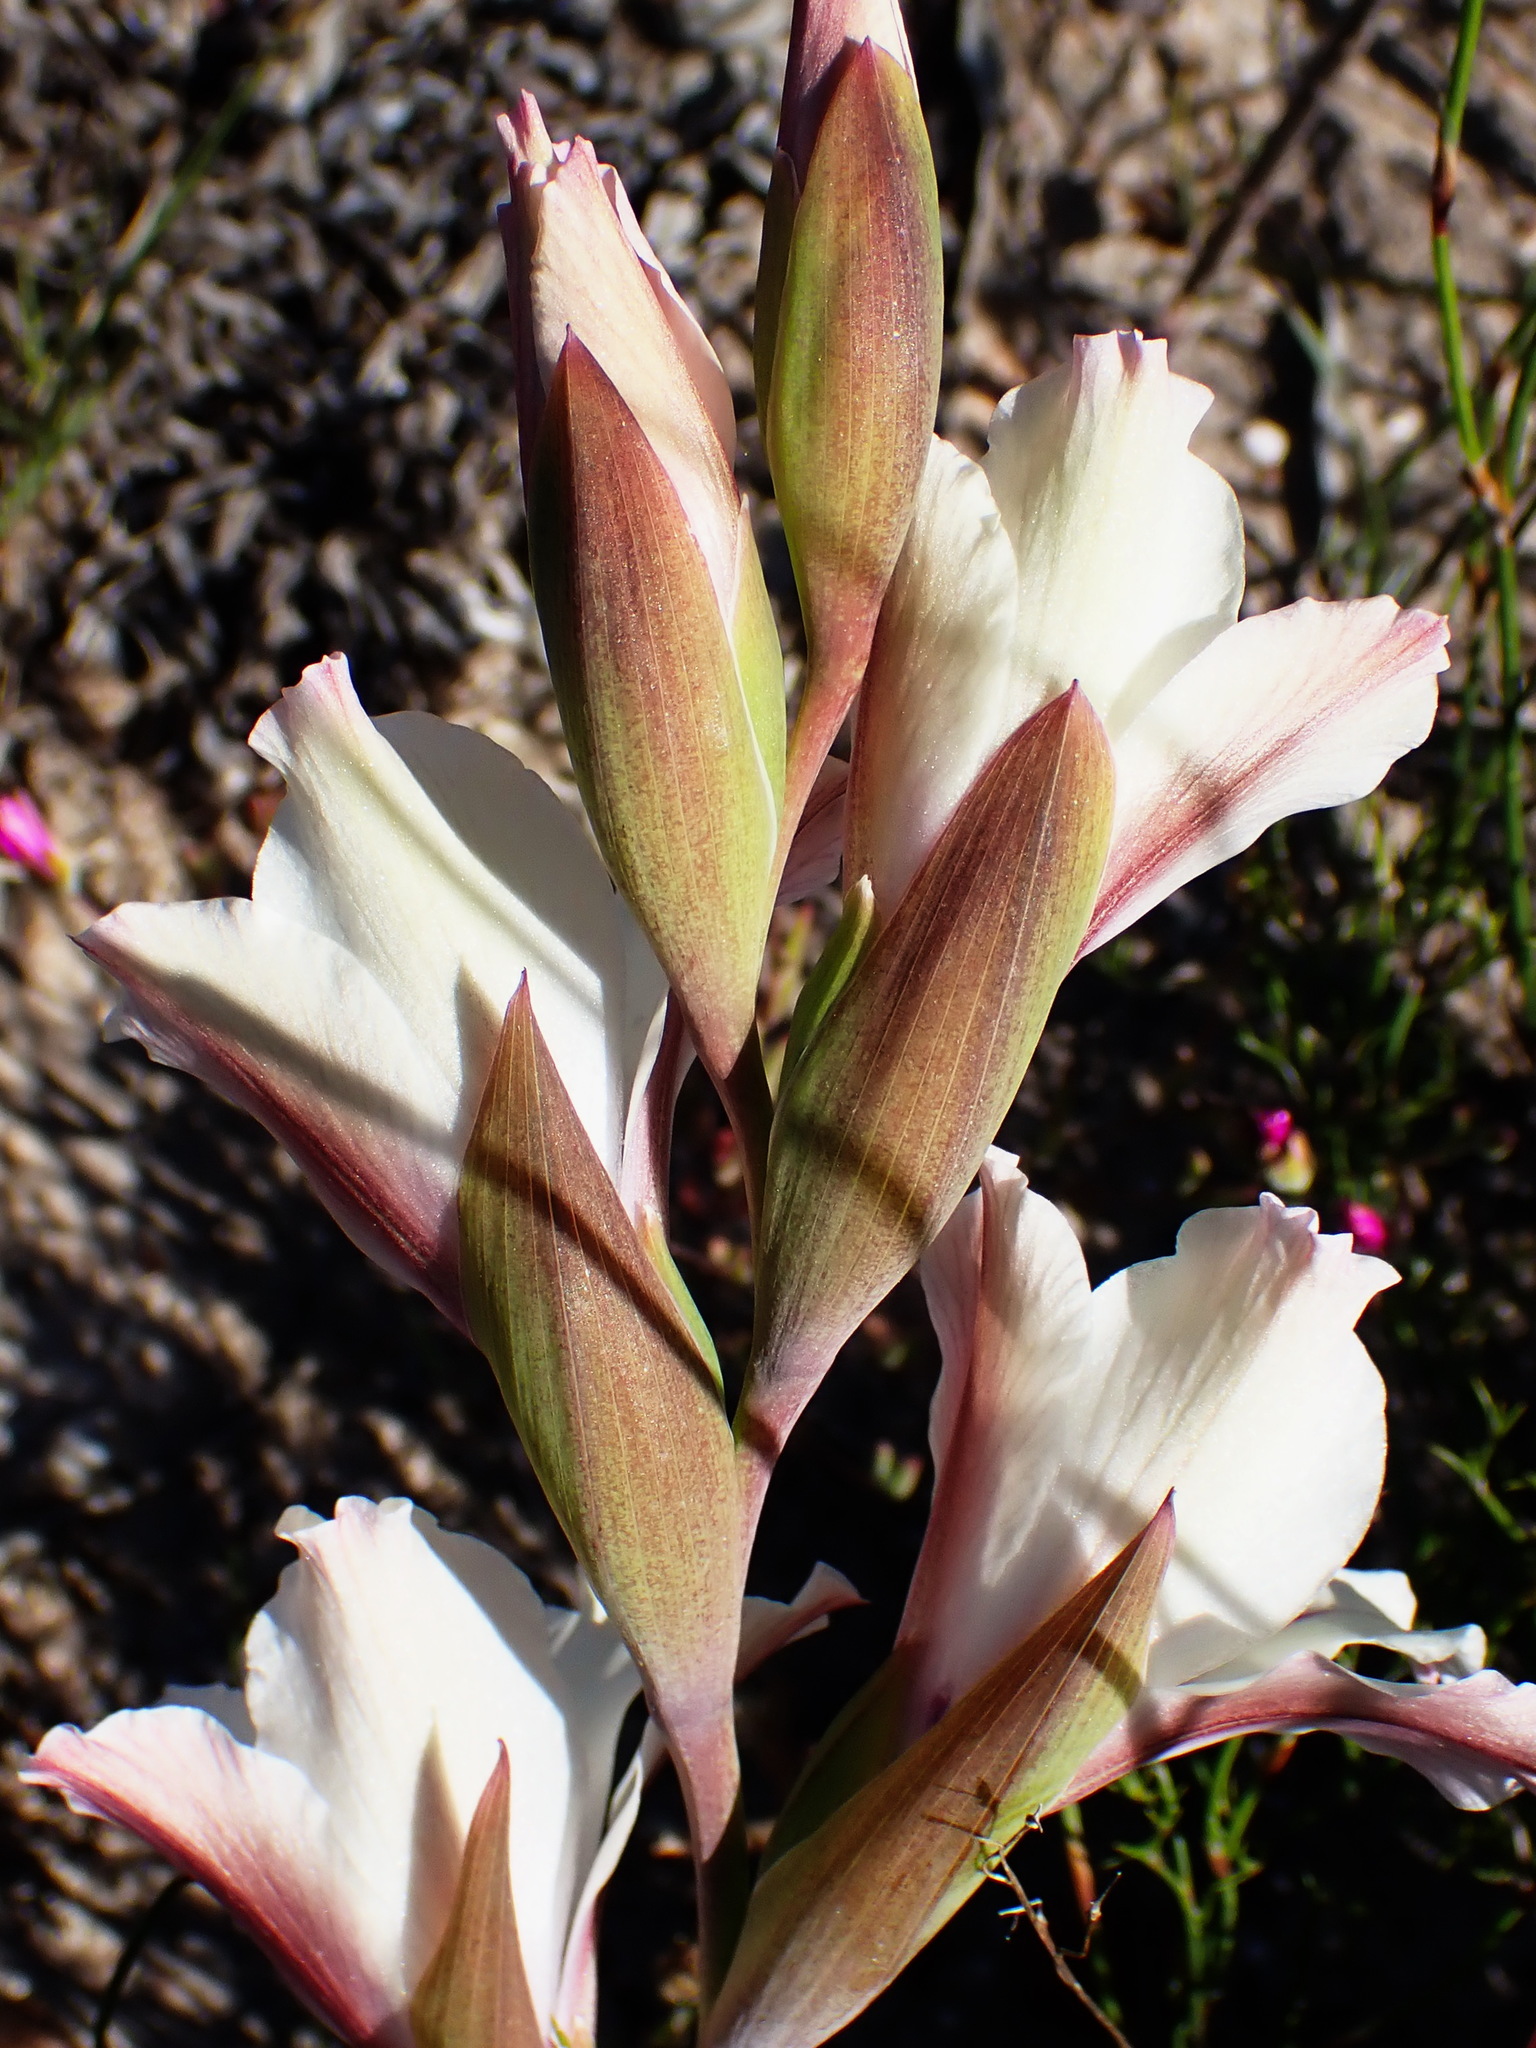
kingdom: Plantae
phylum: Tracheophyta
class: Liliopsida
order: Asparagales
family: Iridaceae
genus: Gladiolus
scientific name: Gladiolus floribundus
